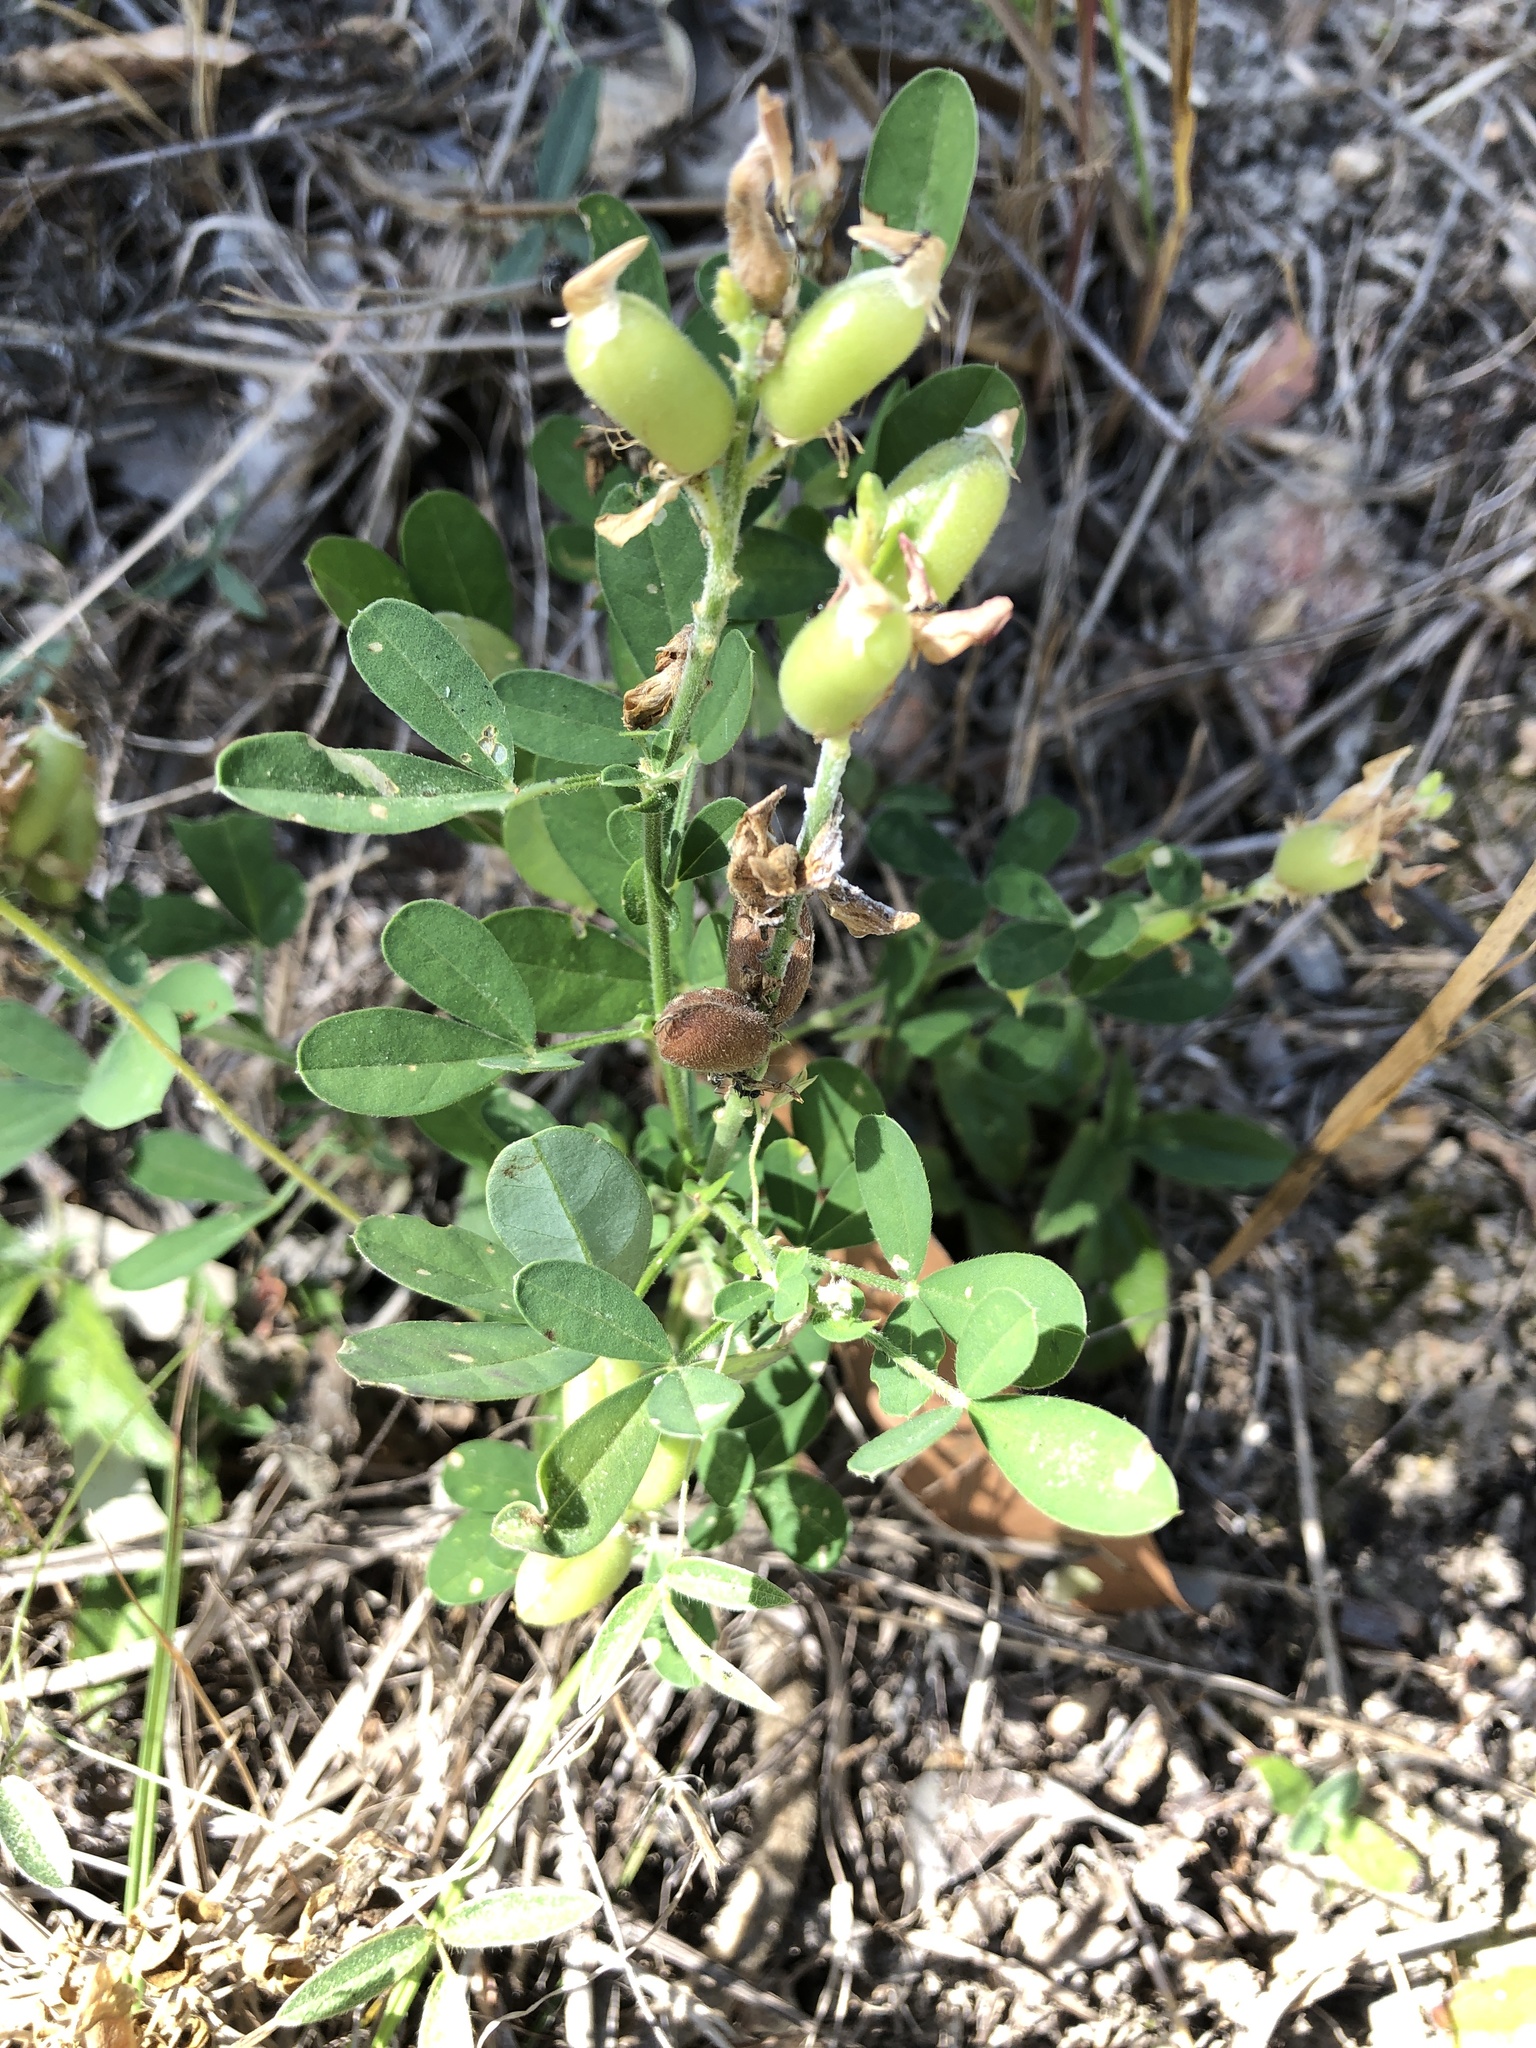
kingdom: Plantae
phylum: Tracheophyta
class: Magnoliopsida
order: Fabales
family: Fabaceae
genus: Crotalaria
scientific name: Crotalaria goreensis
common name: Gambia-pea
